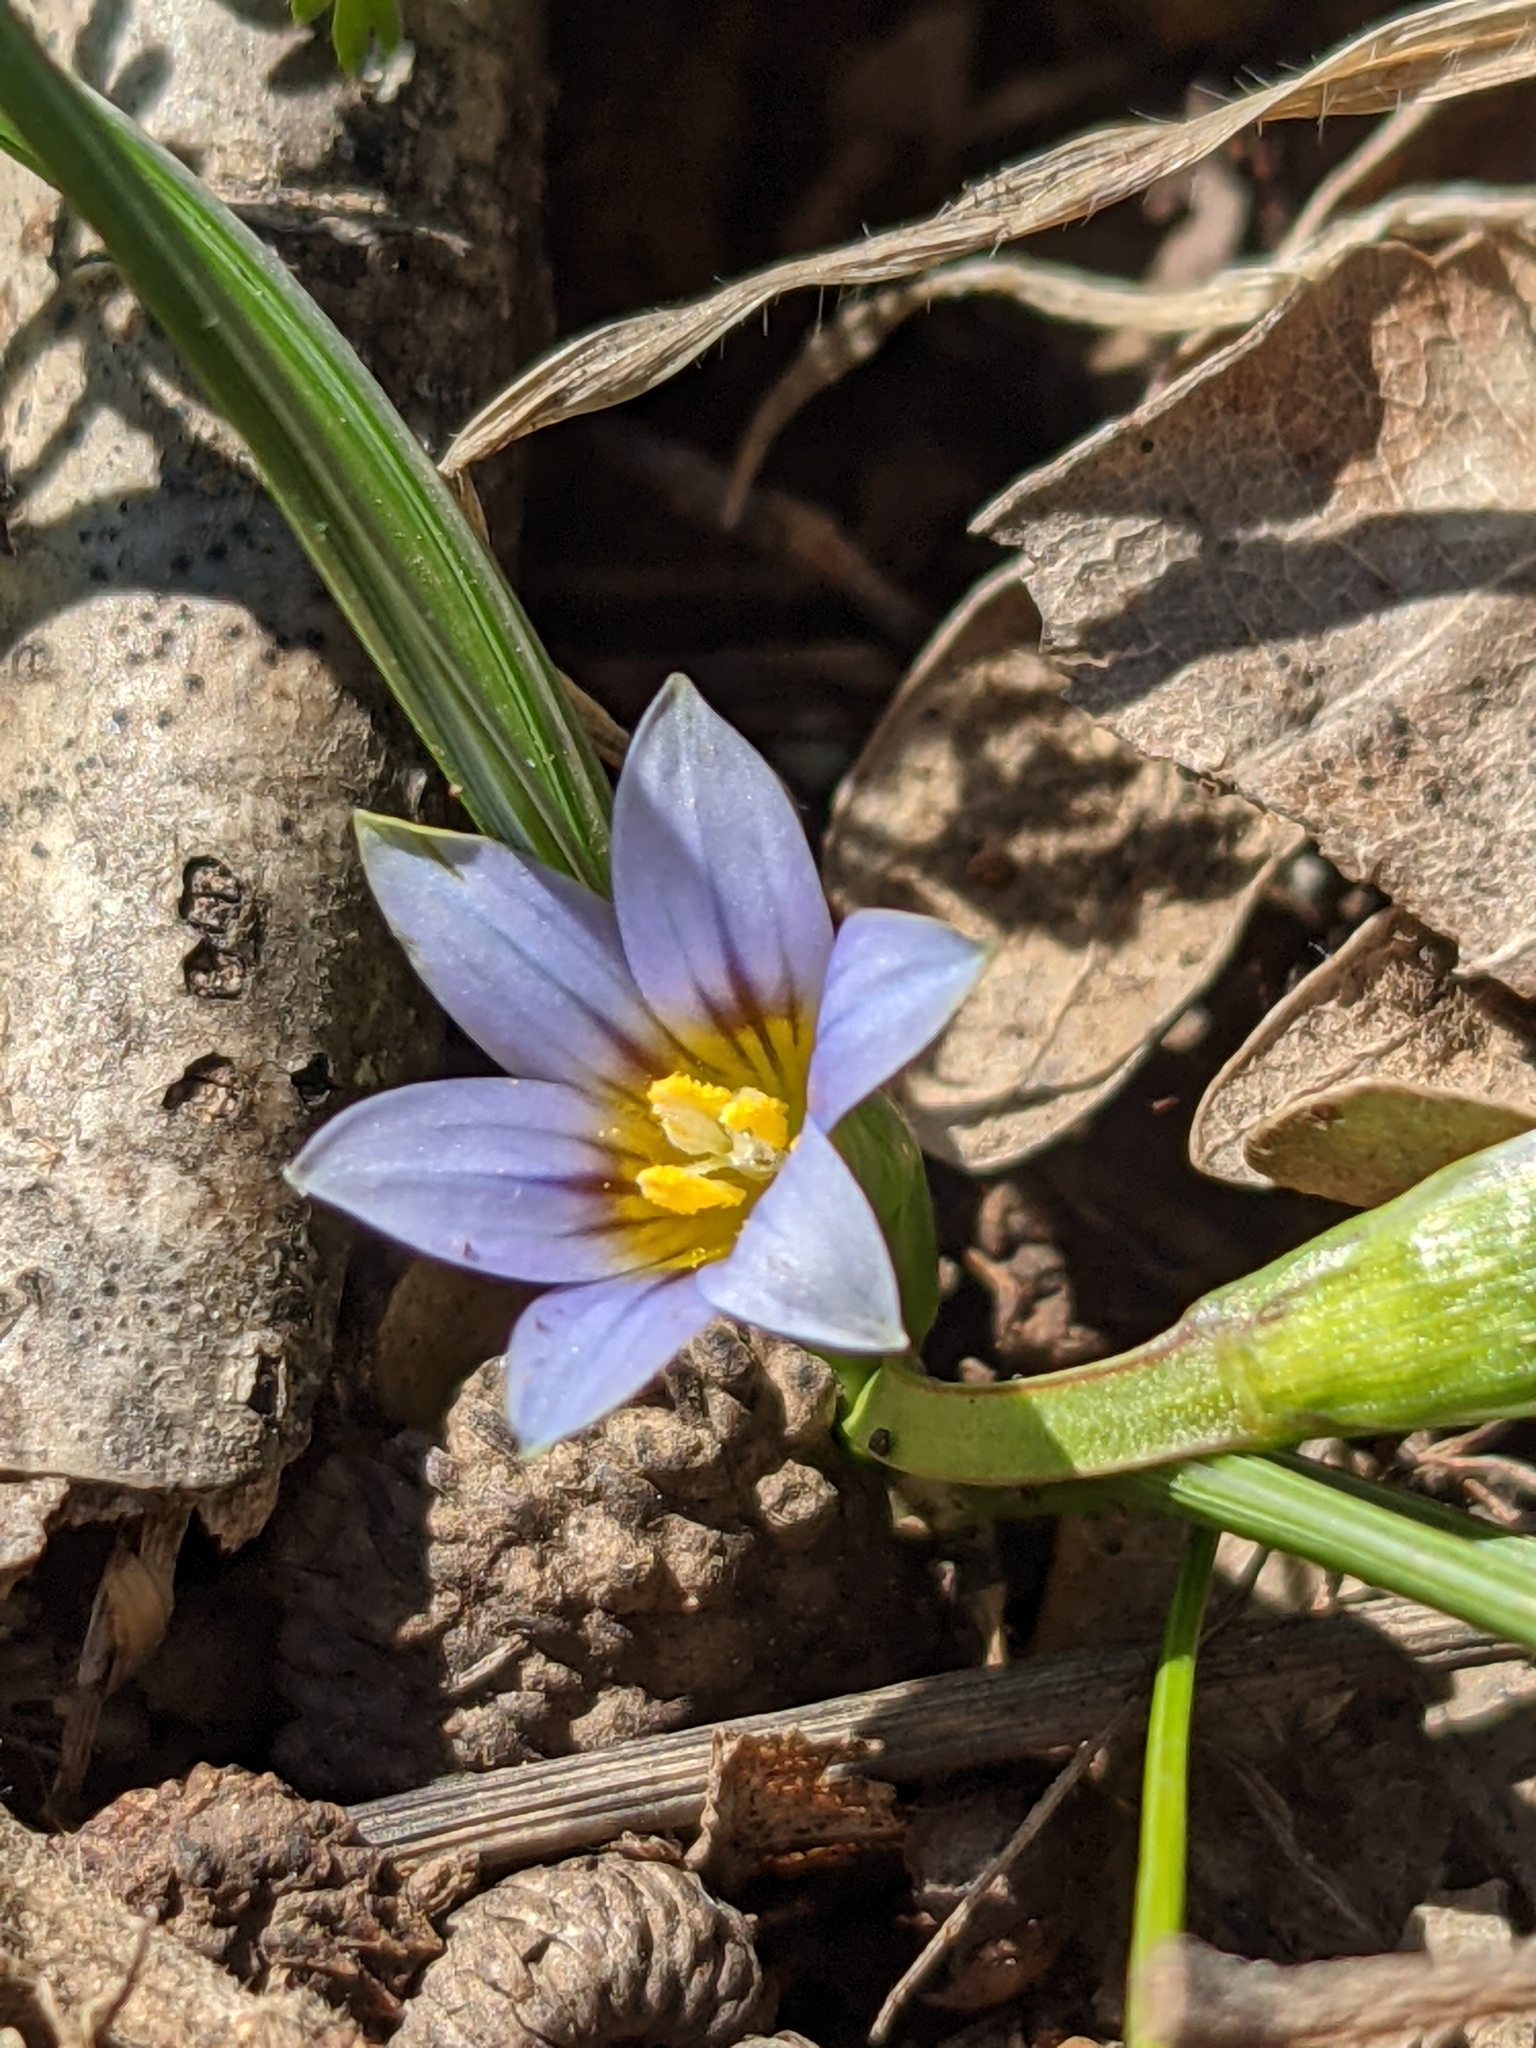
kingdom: Plantae
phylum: Tracheophyta
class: Liliopsida
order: Asparagales
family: Iridaceae
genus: Romulea
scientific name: Romulea ramiflora
